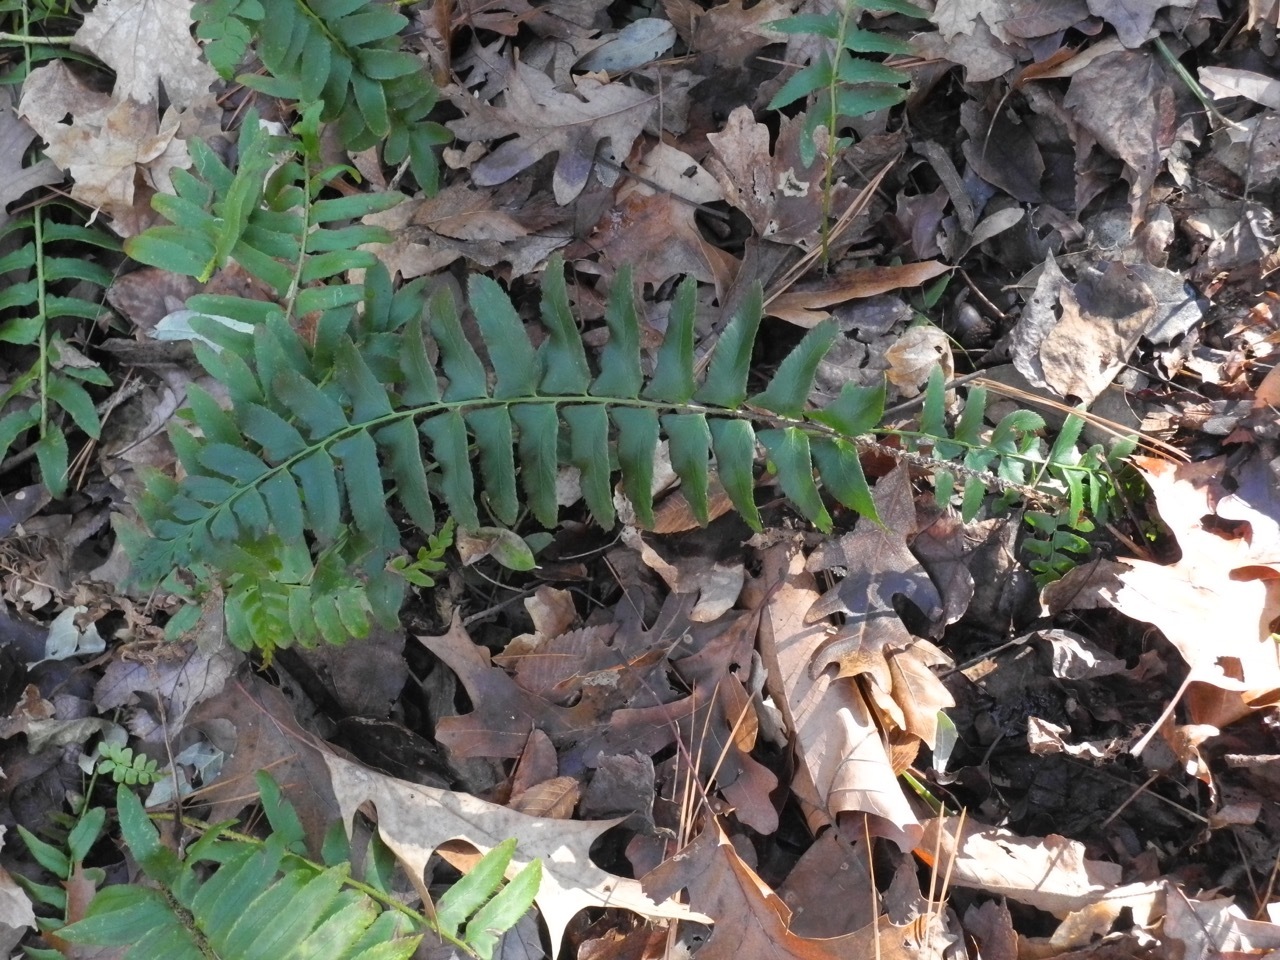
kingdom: Plantae
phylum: Tracheophyta
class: Polypodiopsida
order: Polypodiales
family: Dryopteridaceae
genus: Polystichum
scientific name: Polystichum acrostichoides
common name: Christmas fern
